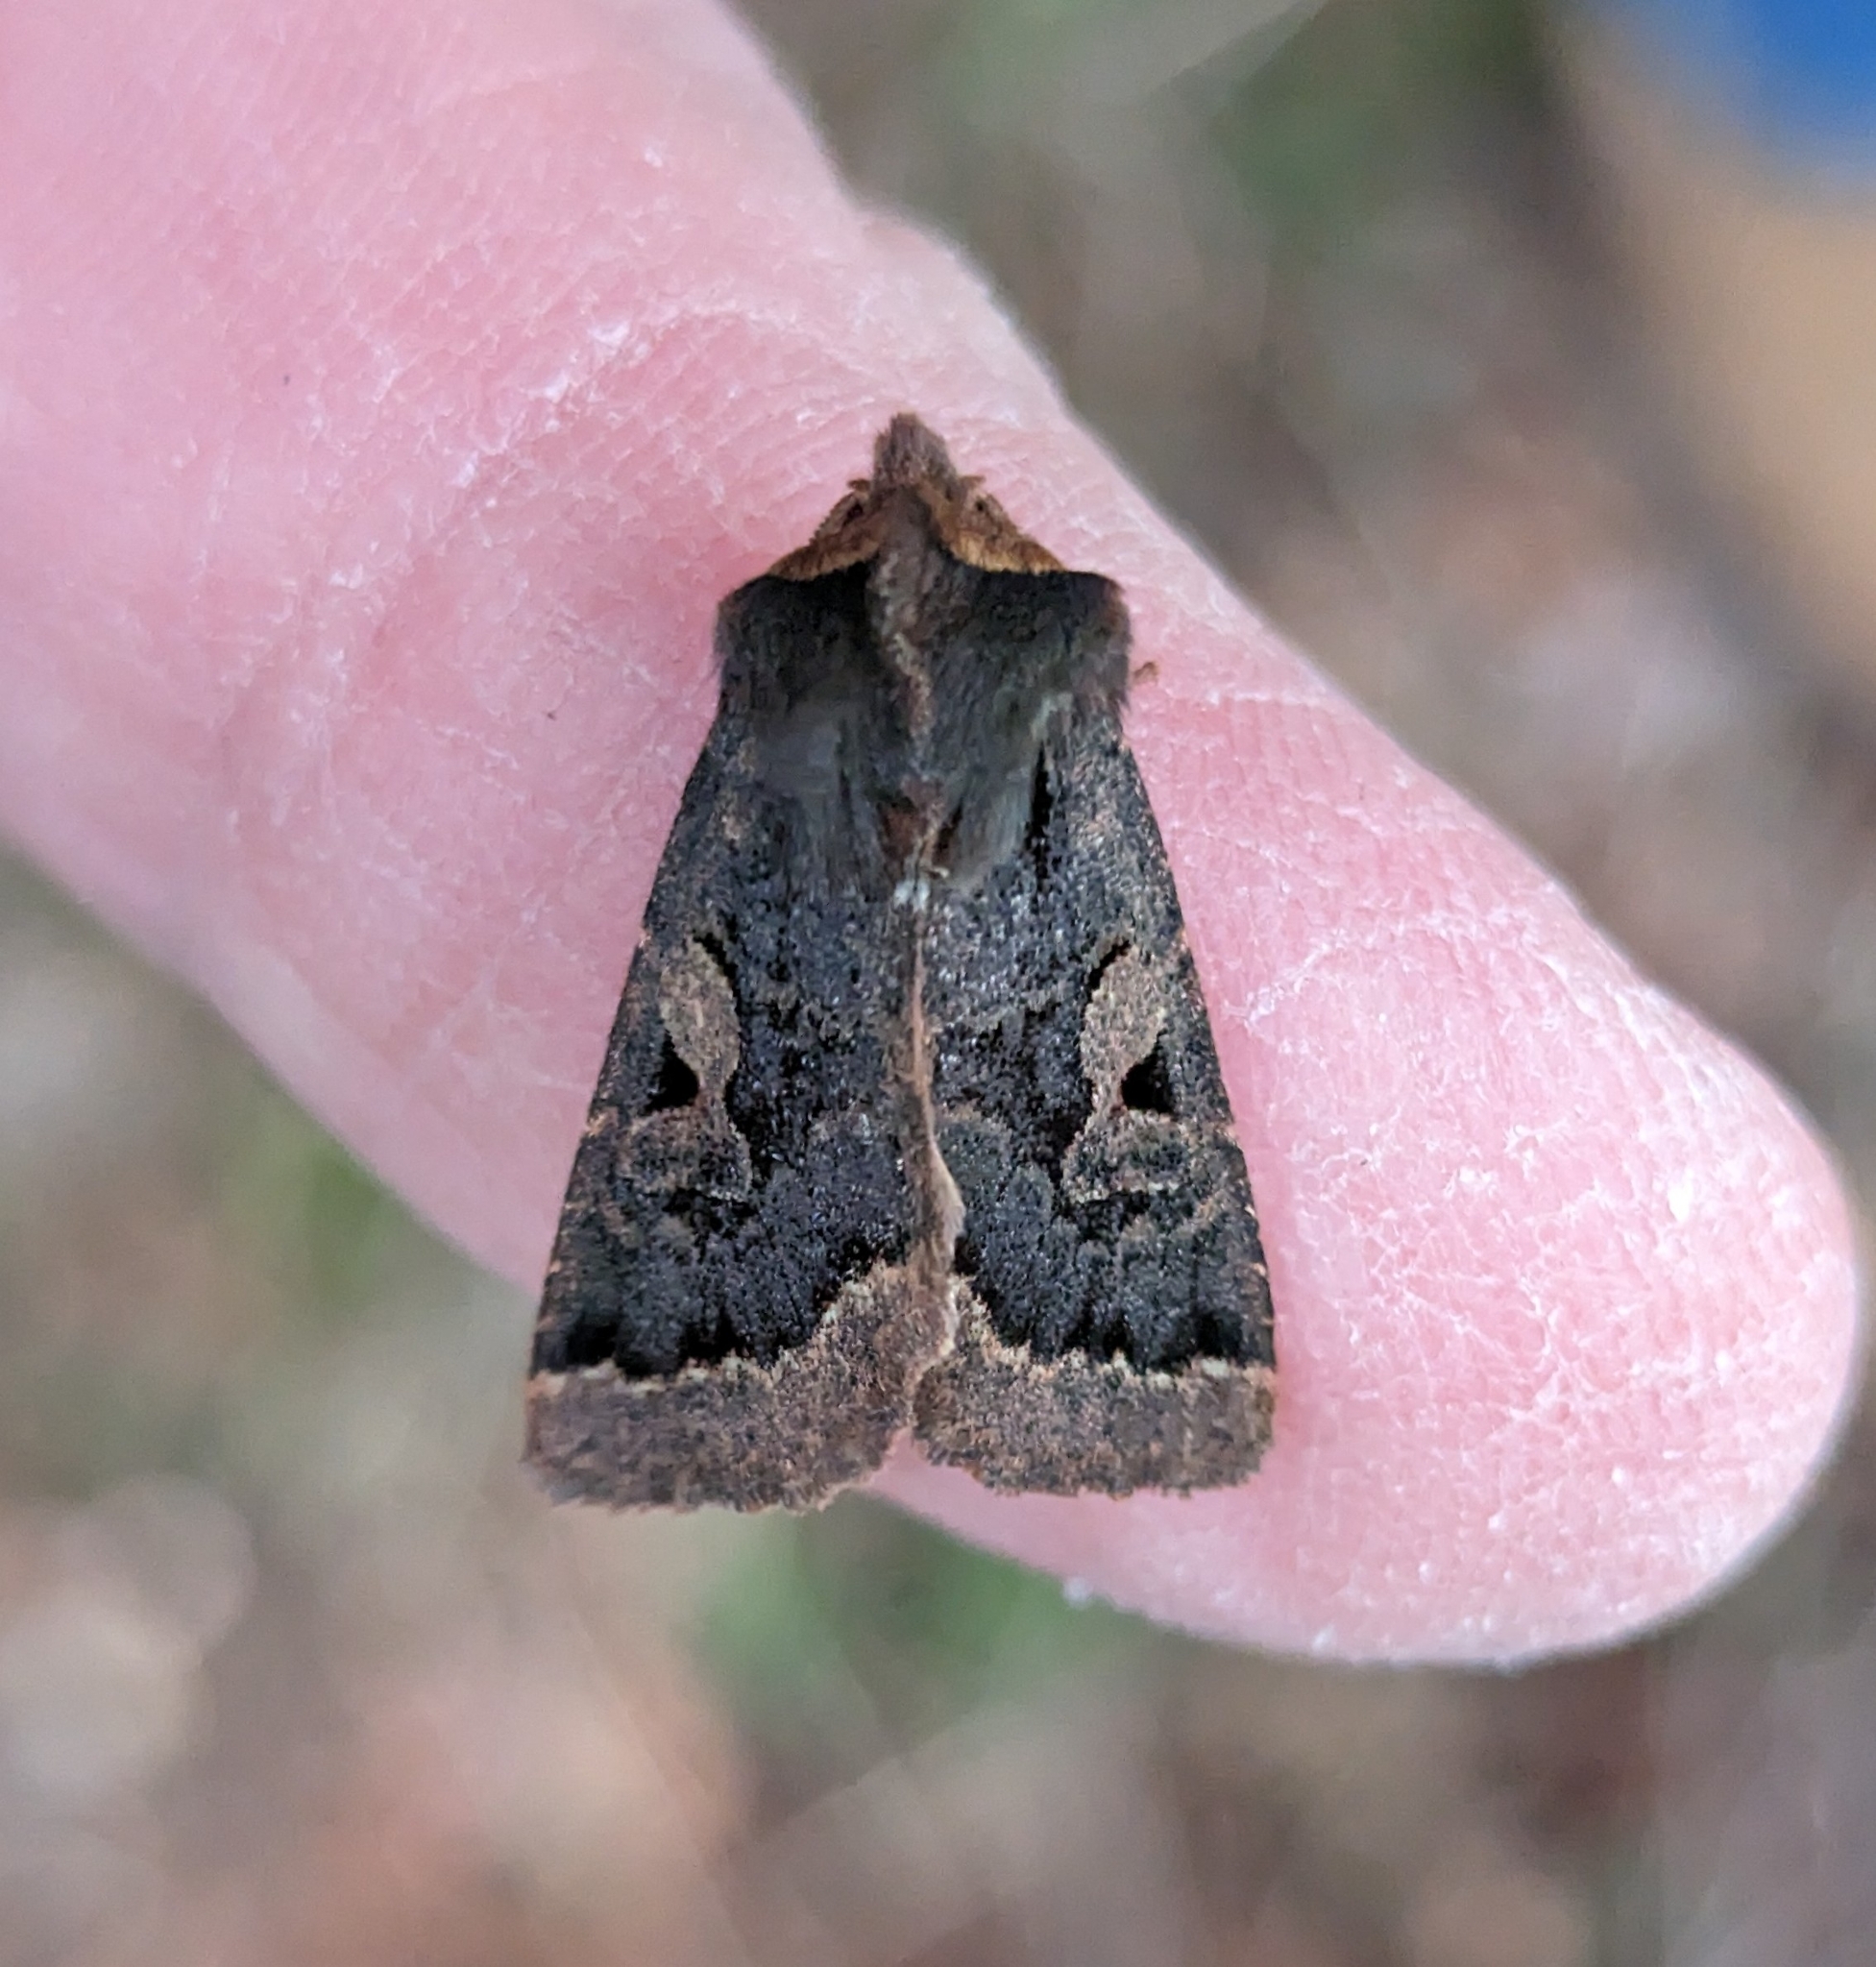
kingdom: Animalia
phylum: Arthropoda
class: Insecta
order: Lepidoptera
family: Noctuidae
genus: Orthosia
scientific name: Orthosia praeses
